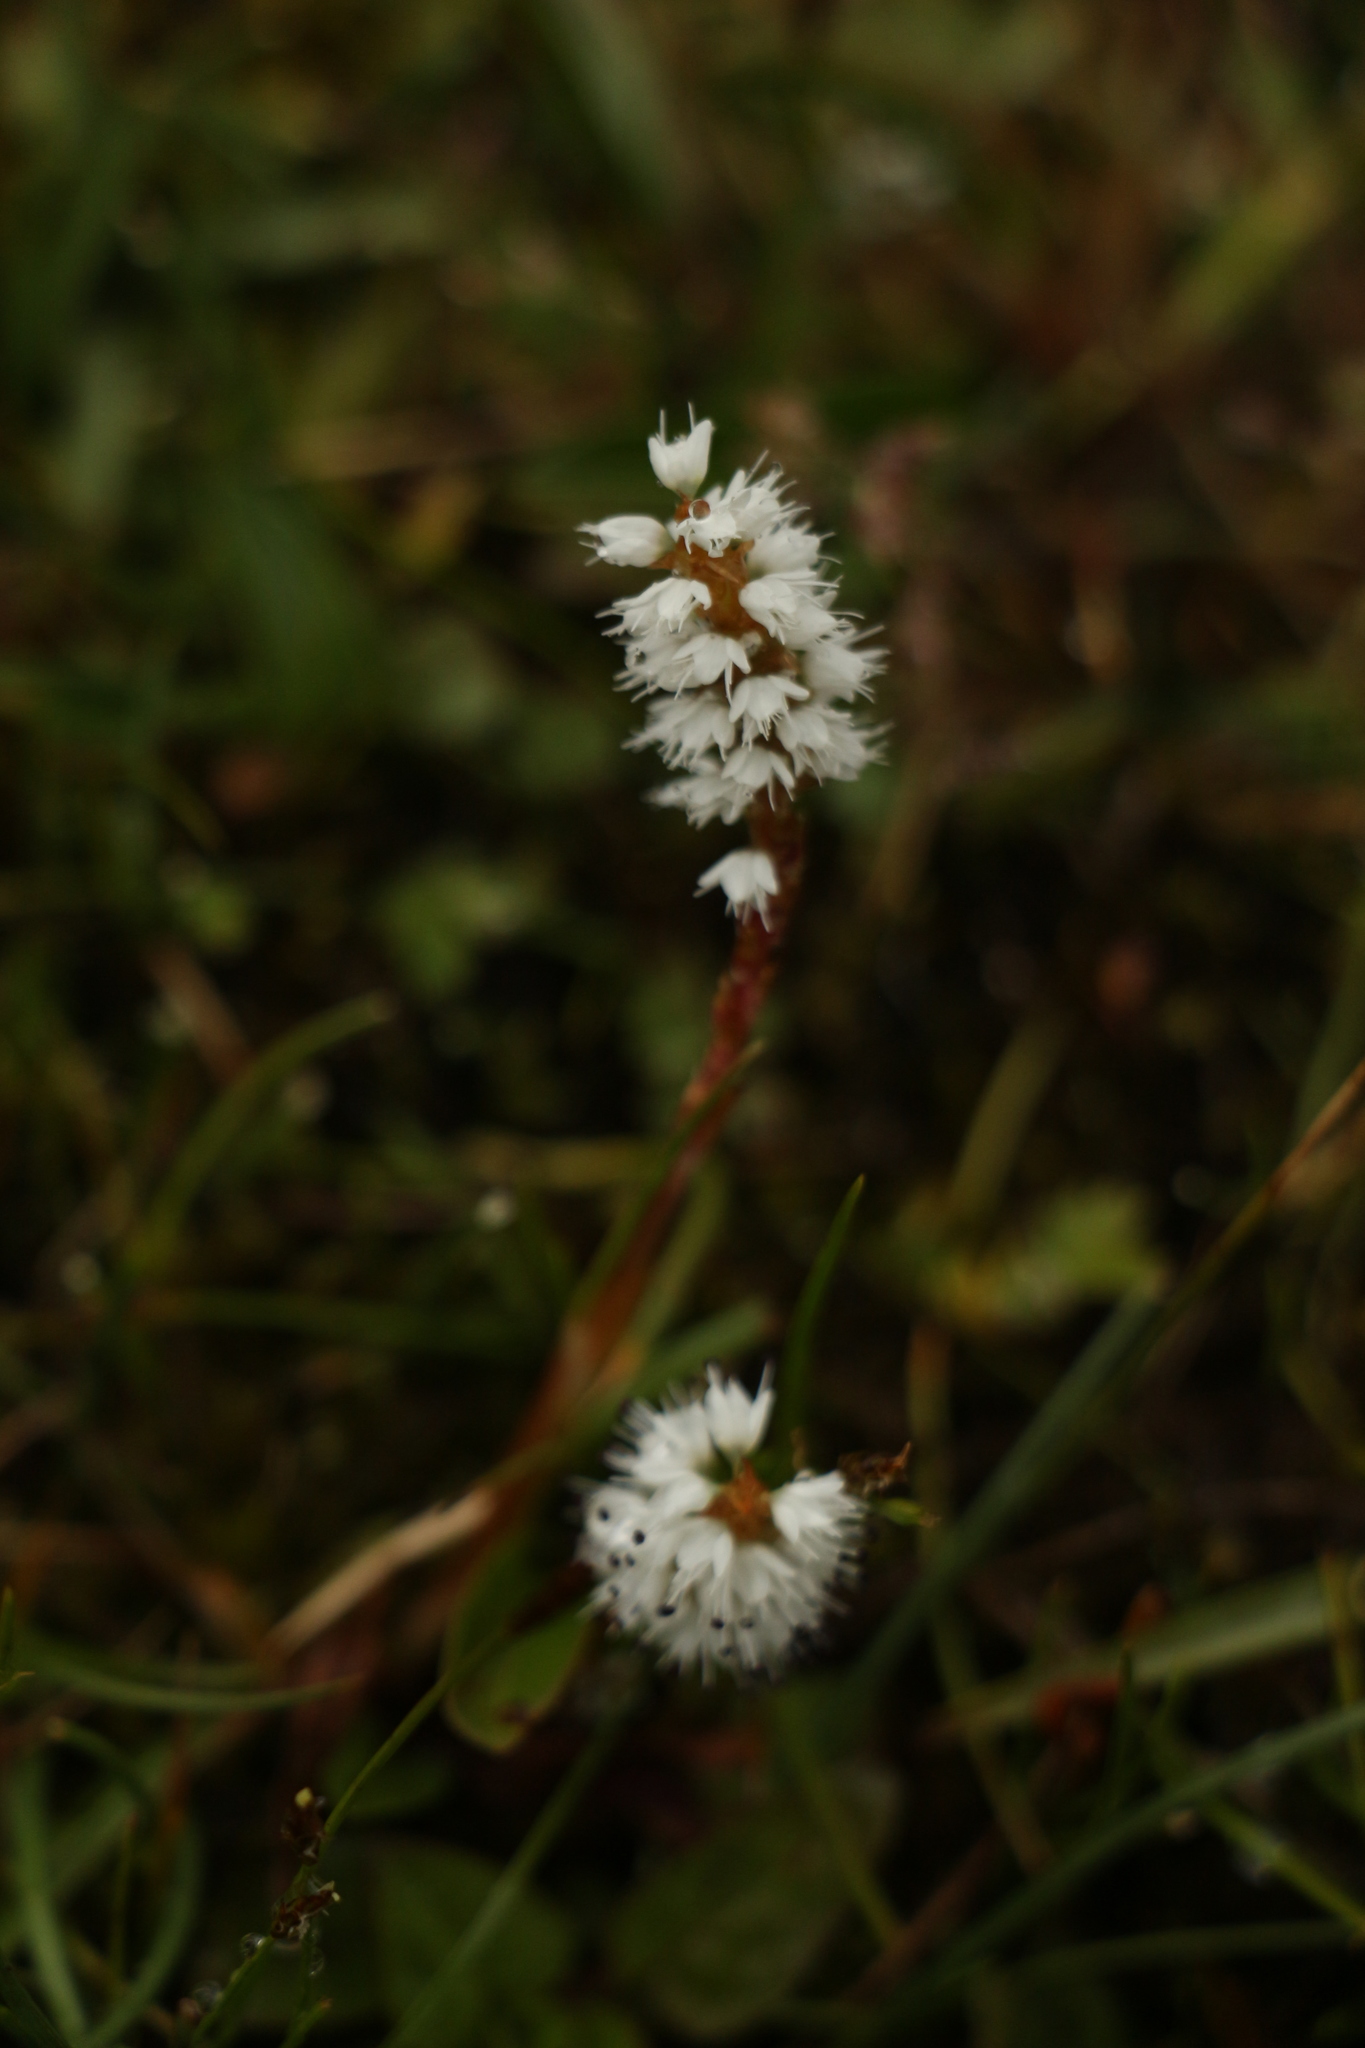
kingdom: Plantae
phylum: Tracheophyta
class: Magnoliopsida
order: Caryophyllales
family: Polygonaceae
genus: Bistorta
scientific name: Bistorta vivipara
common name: Alpine bistort
